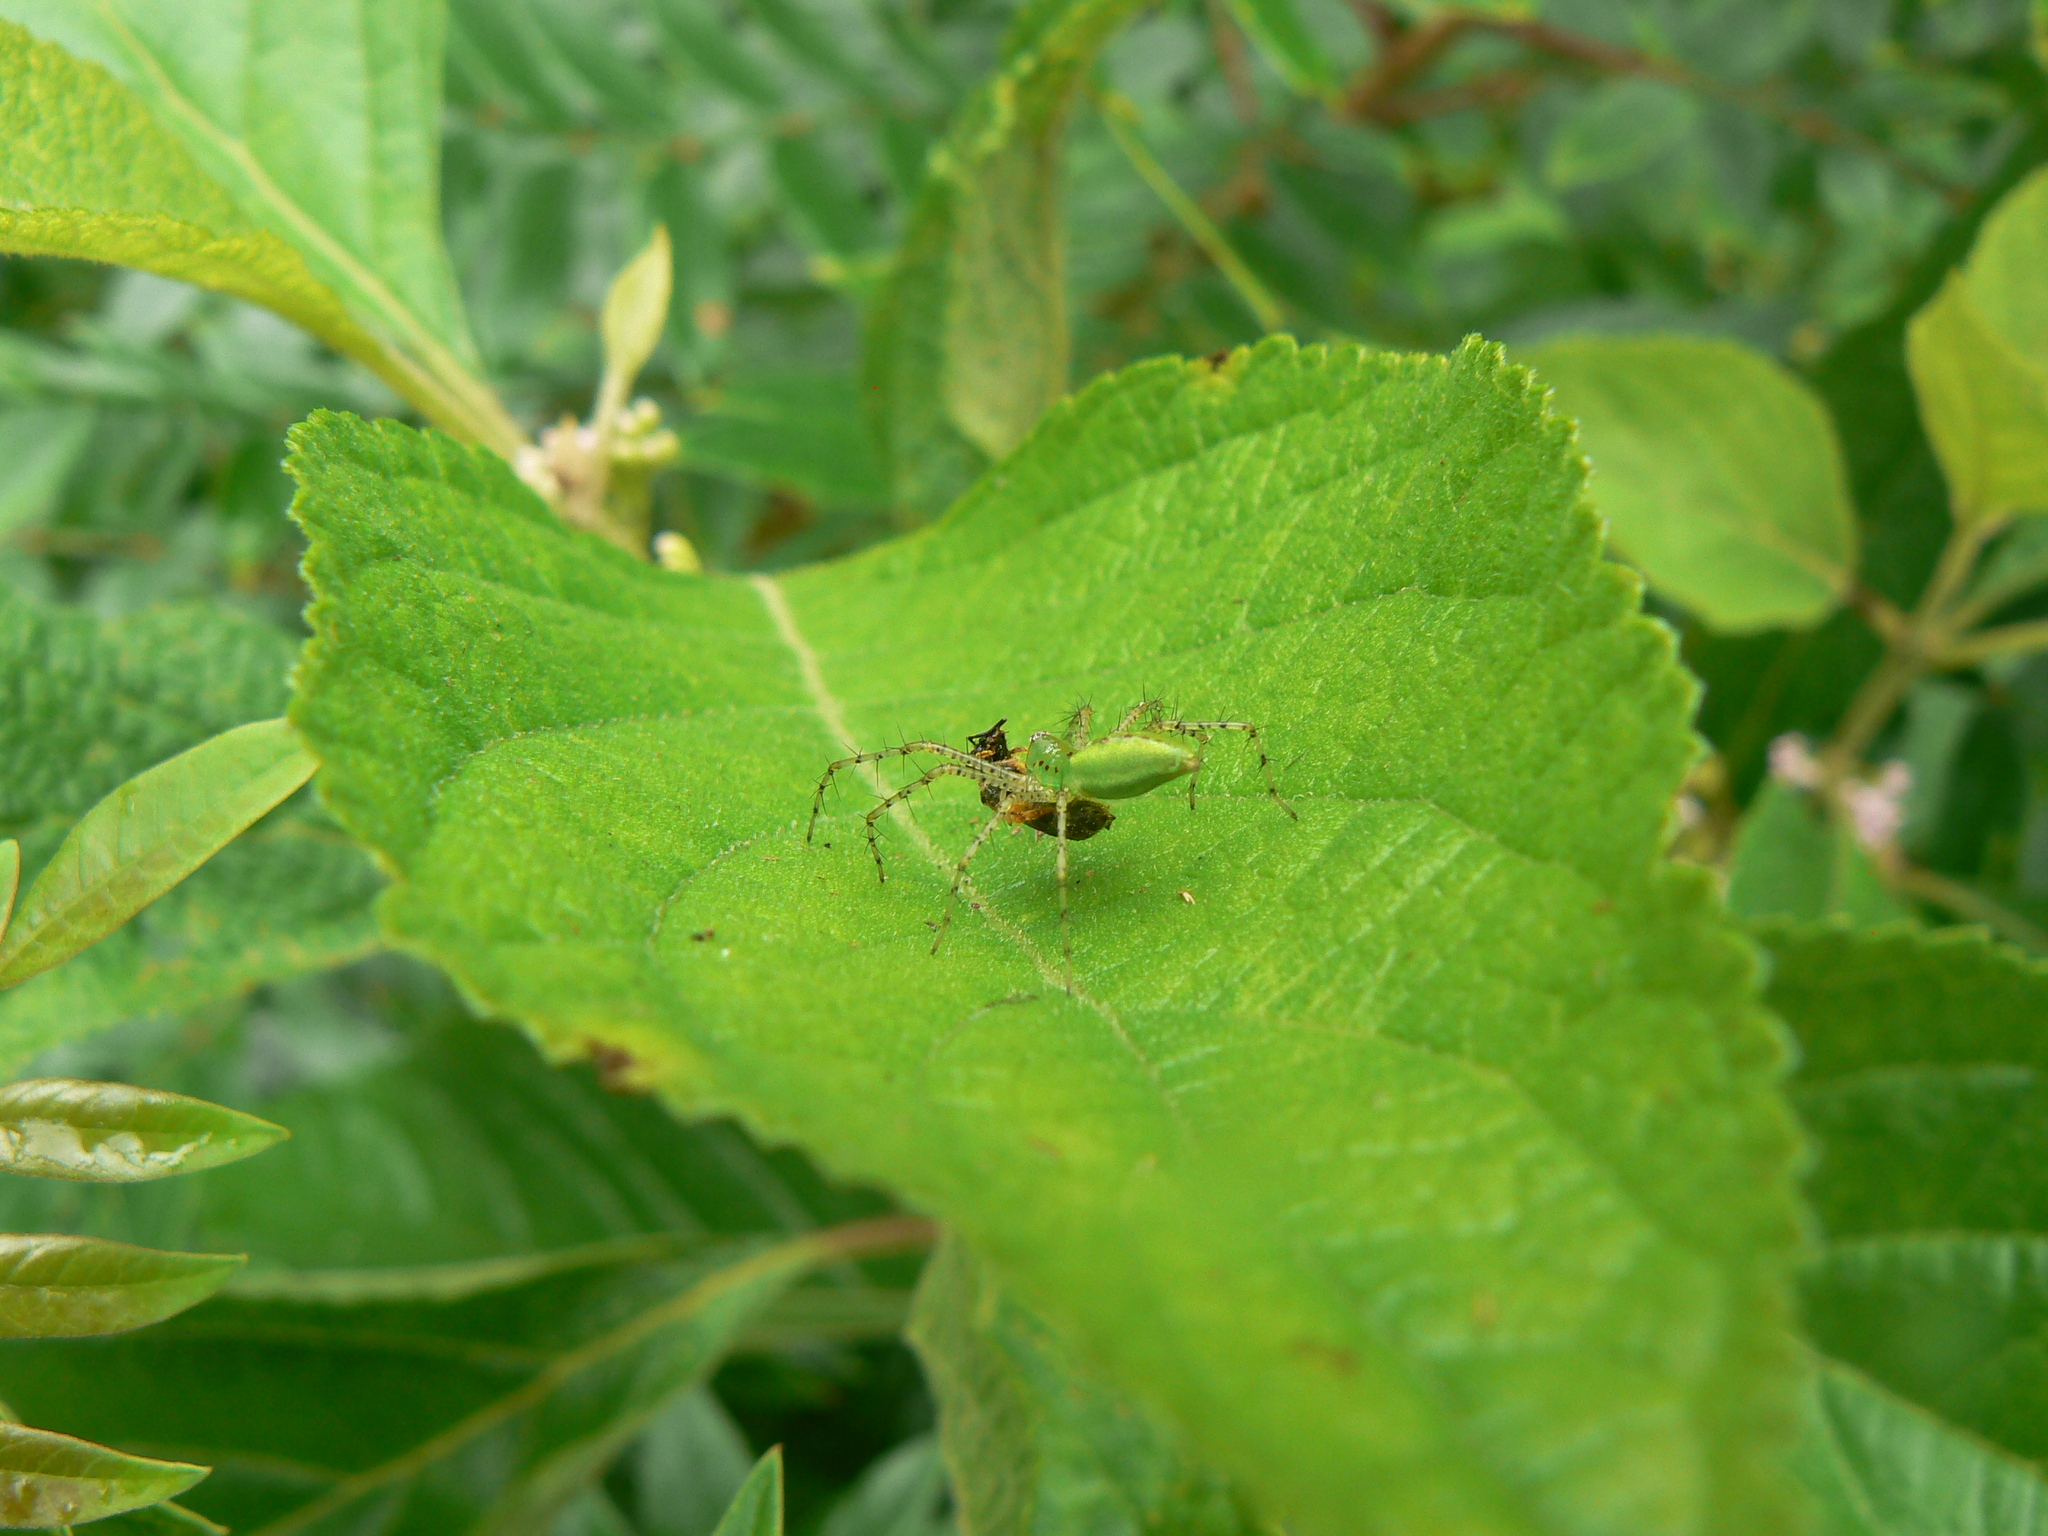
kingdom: Animalia
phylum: Arthropoda
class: Arachnida
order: Araneae
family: Oxyopidae
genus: Peucetia
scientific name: Peucetia viridans
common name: Lynx spiders
